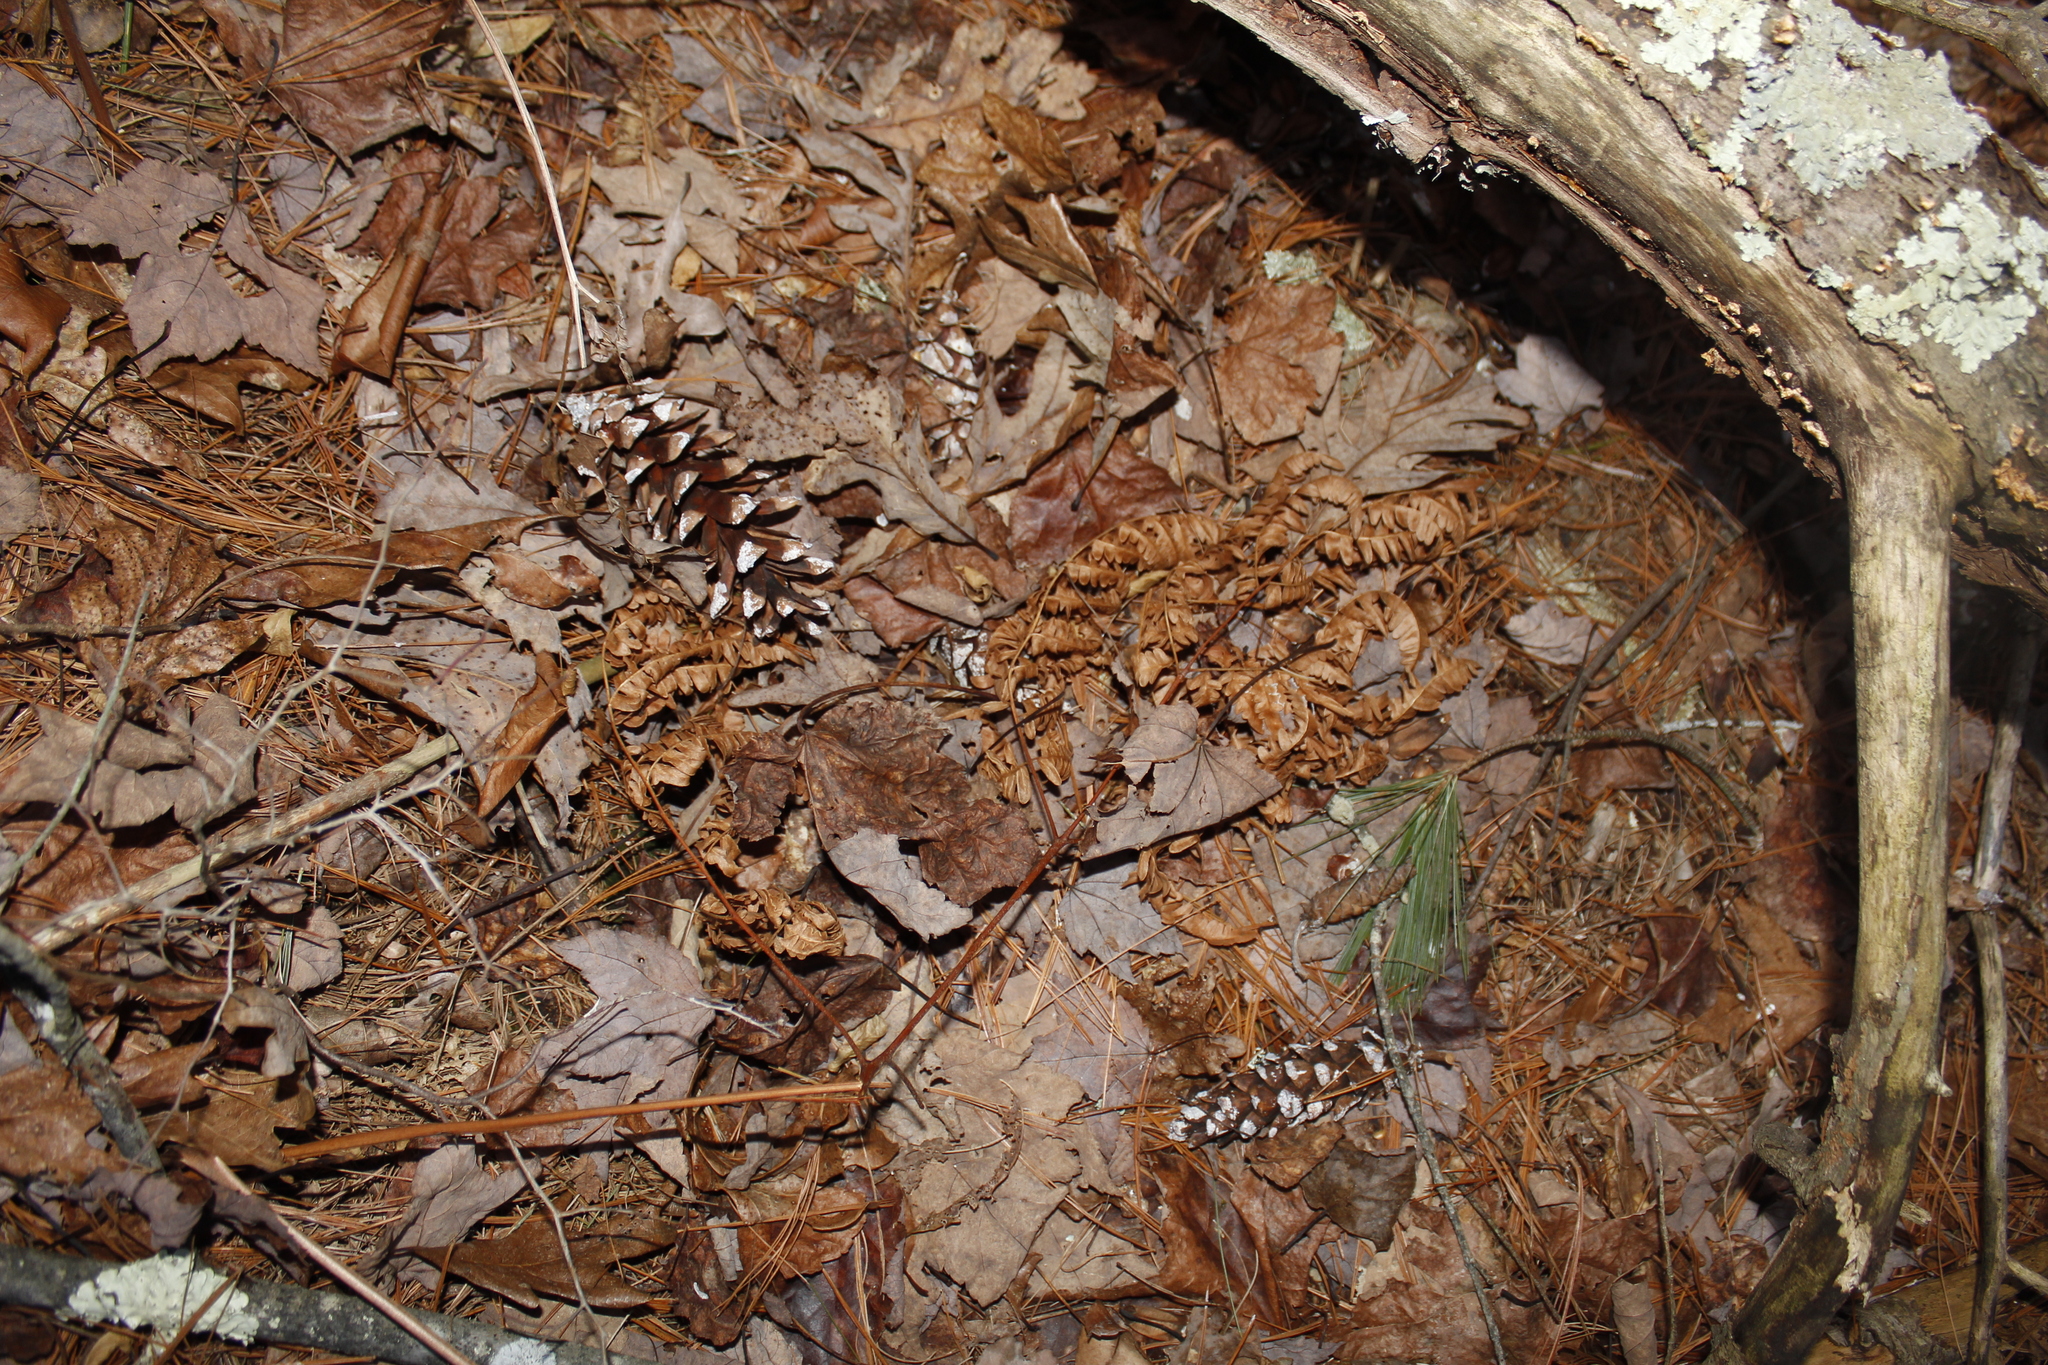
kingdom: Plantae
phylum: Tracheophyta
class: Polypodiopsida
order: Polypodiales
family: Dennstaedtiaceae
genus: Pteridium
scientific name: Pteridium aquilinum
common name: Bracken
